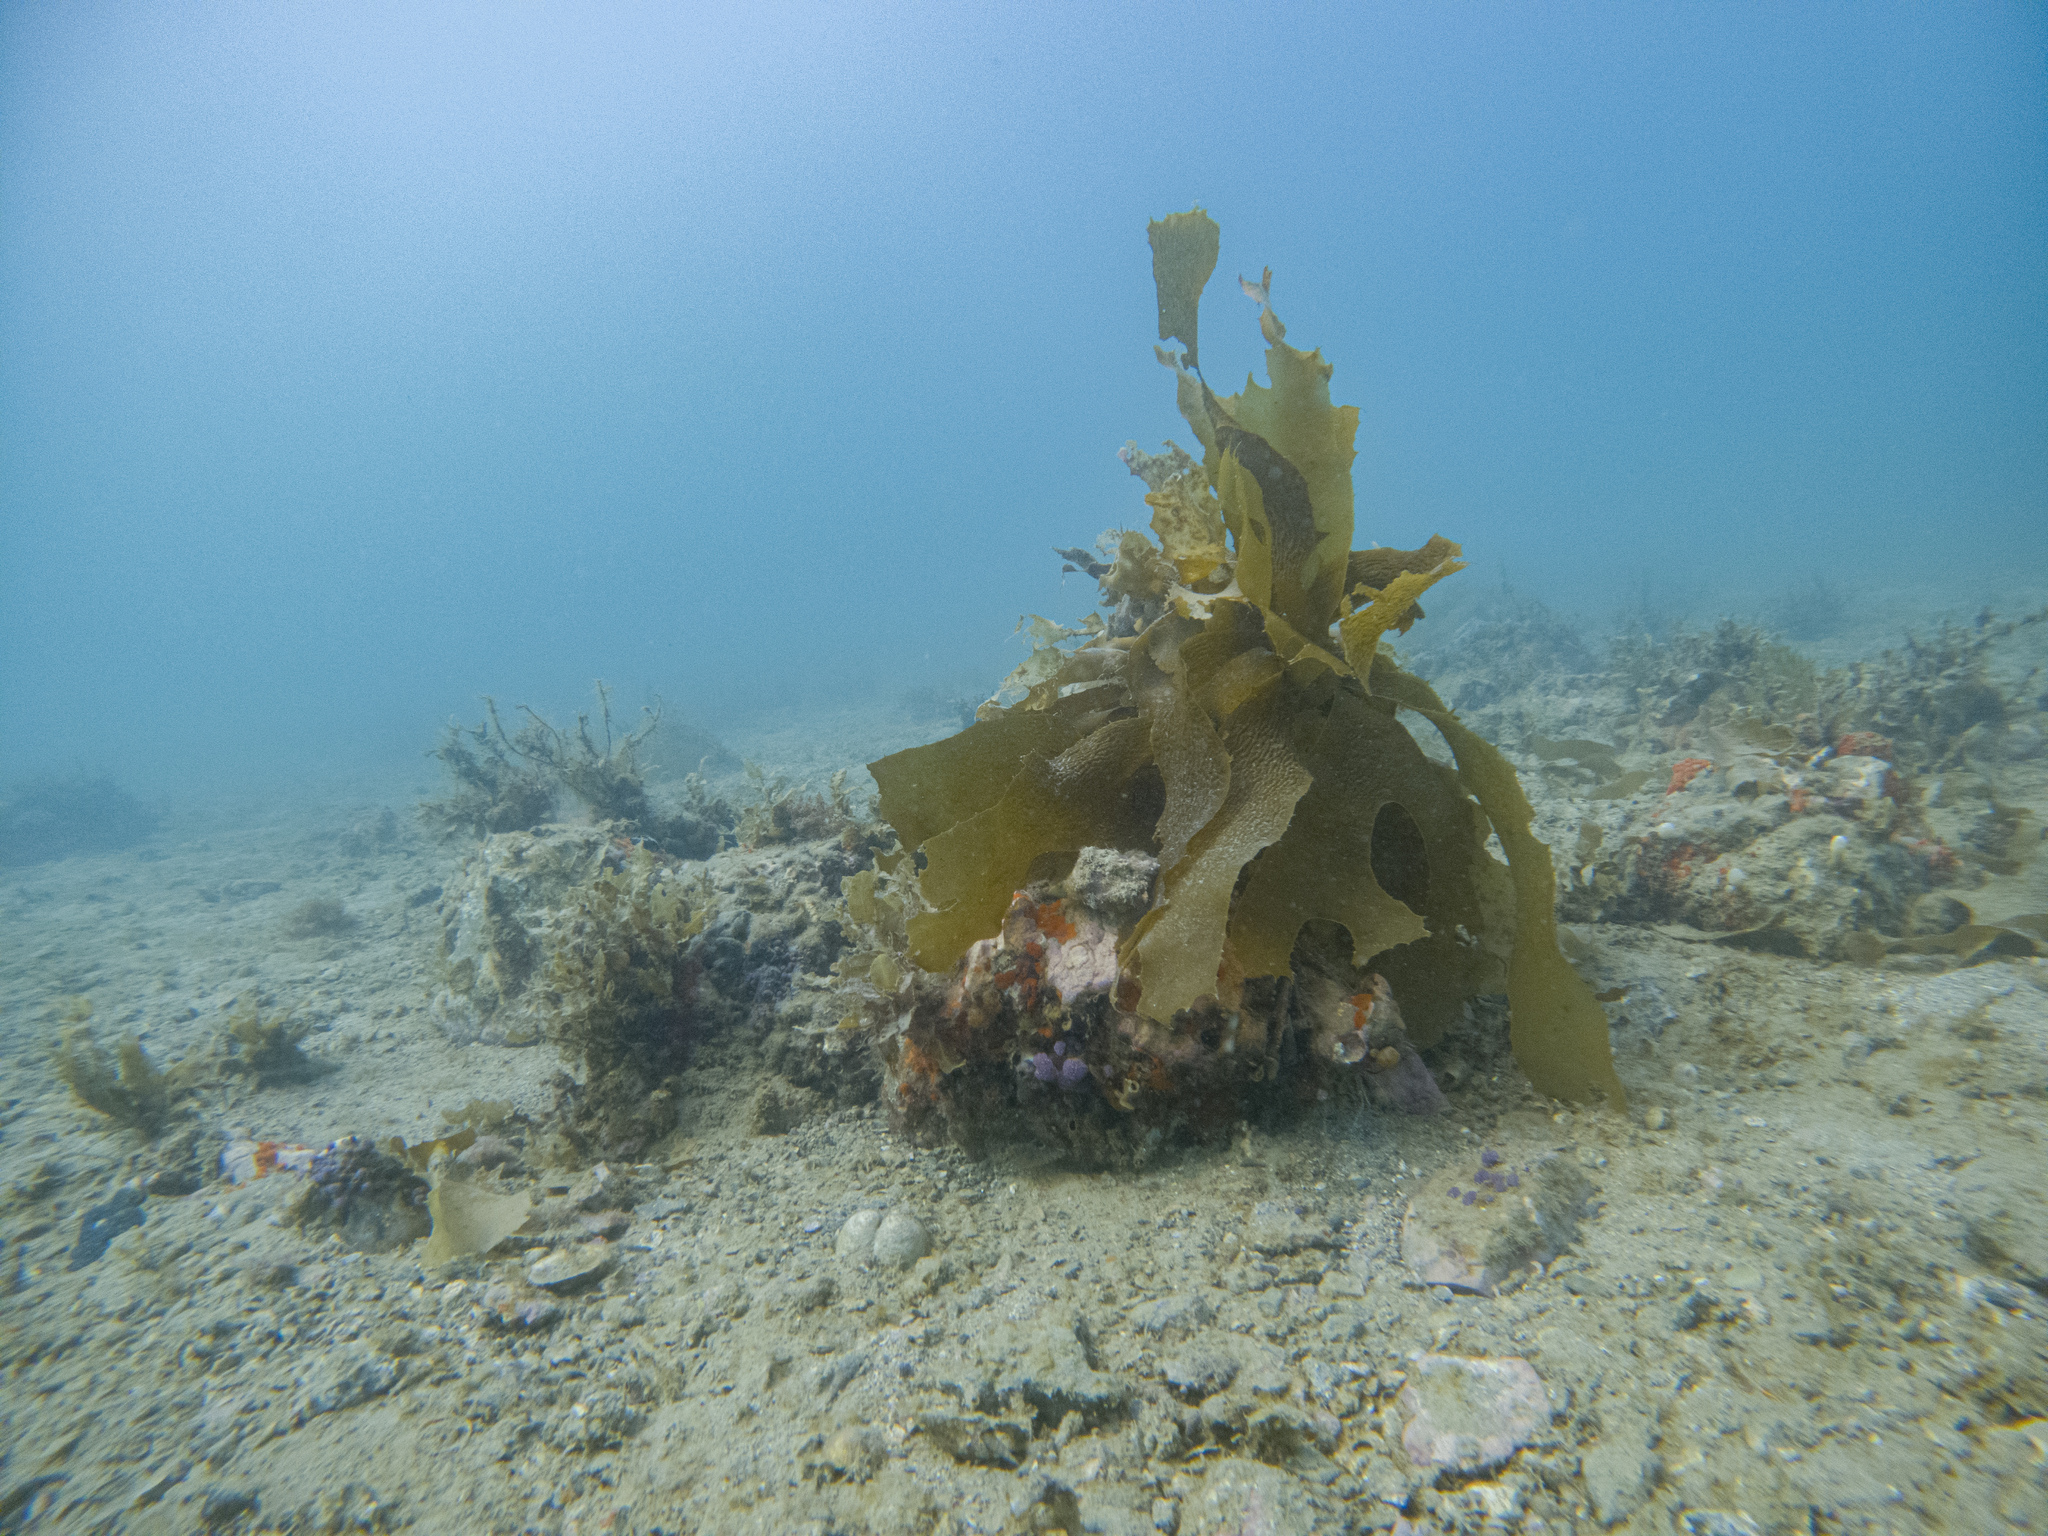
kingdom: Chromista
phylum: Ochrophyta
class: Phaeophyceae
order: Laminariales
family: Lessoniaceae
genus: Ecklonia
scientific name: Ecklonia radiata
